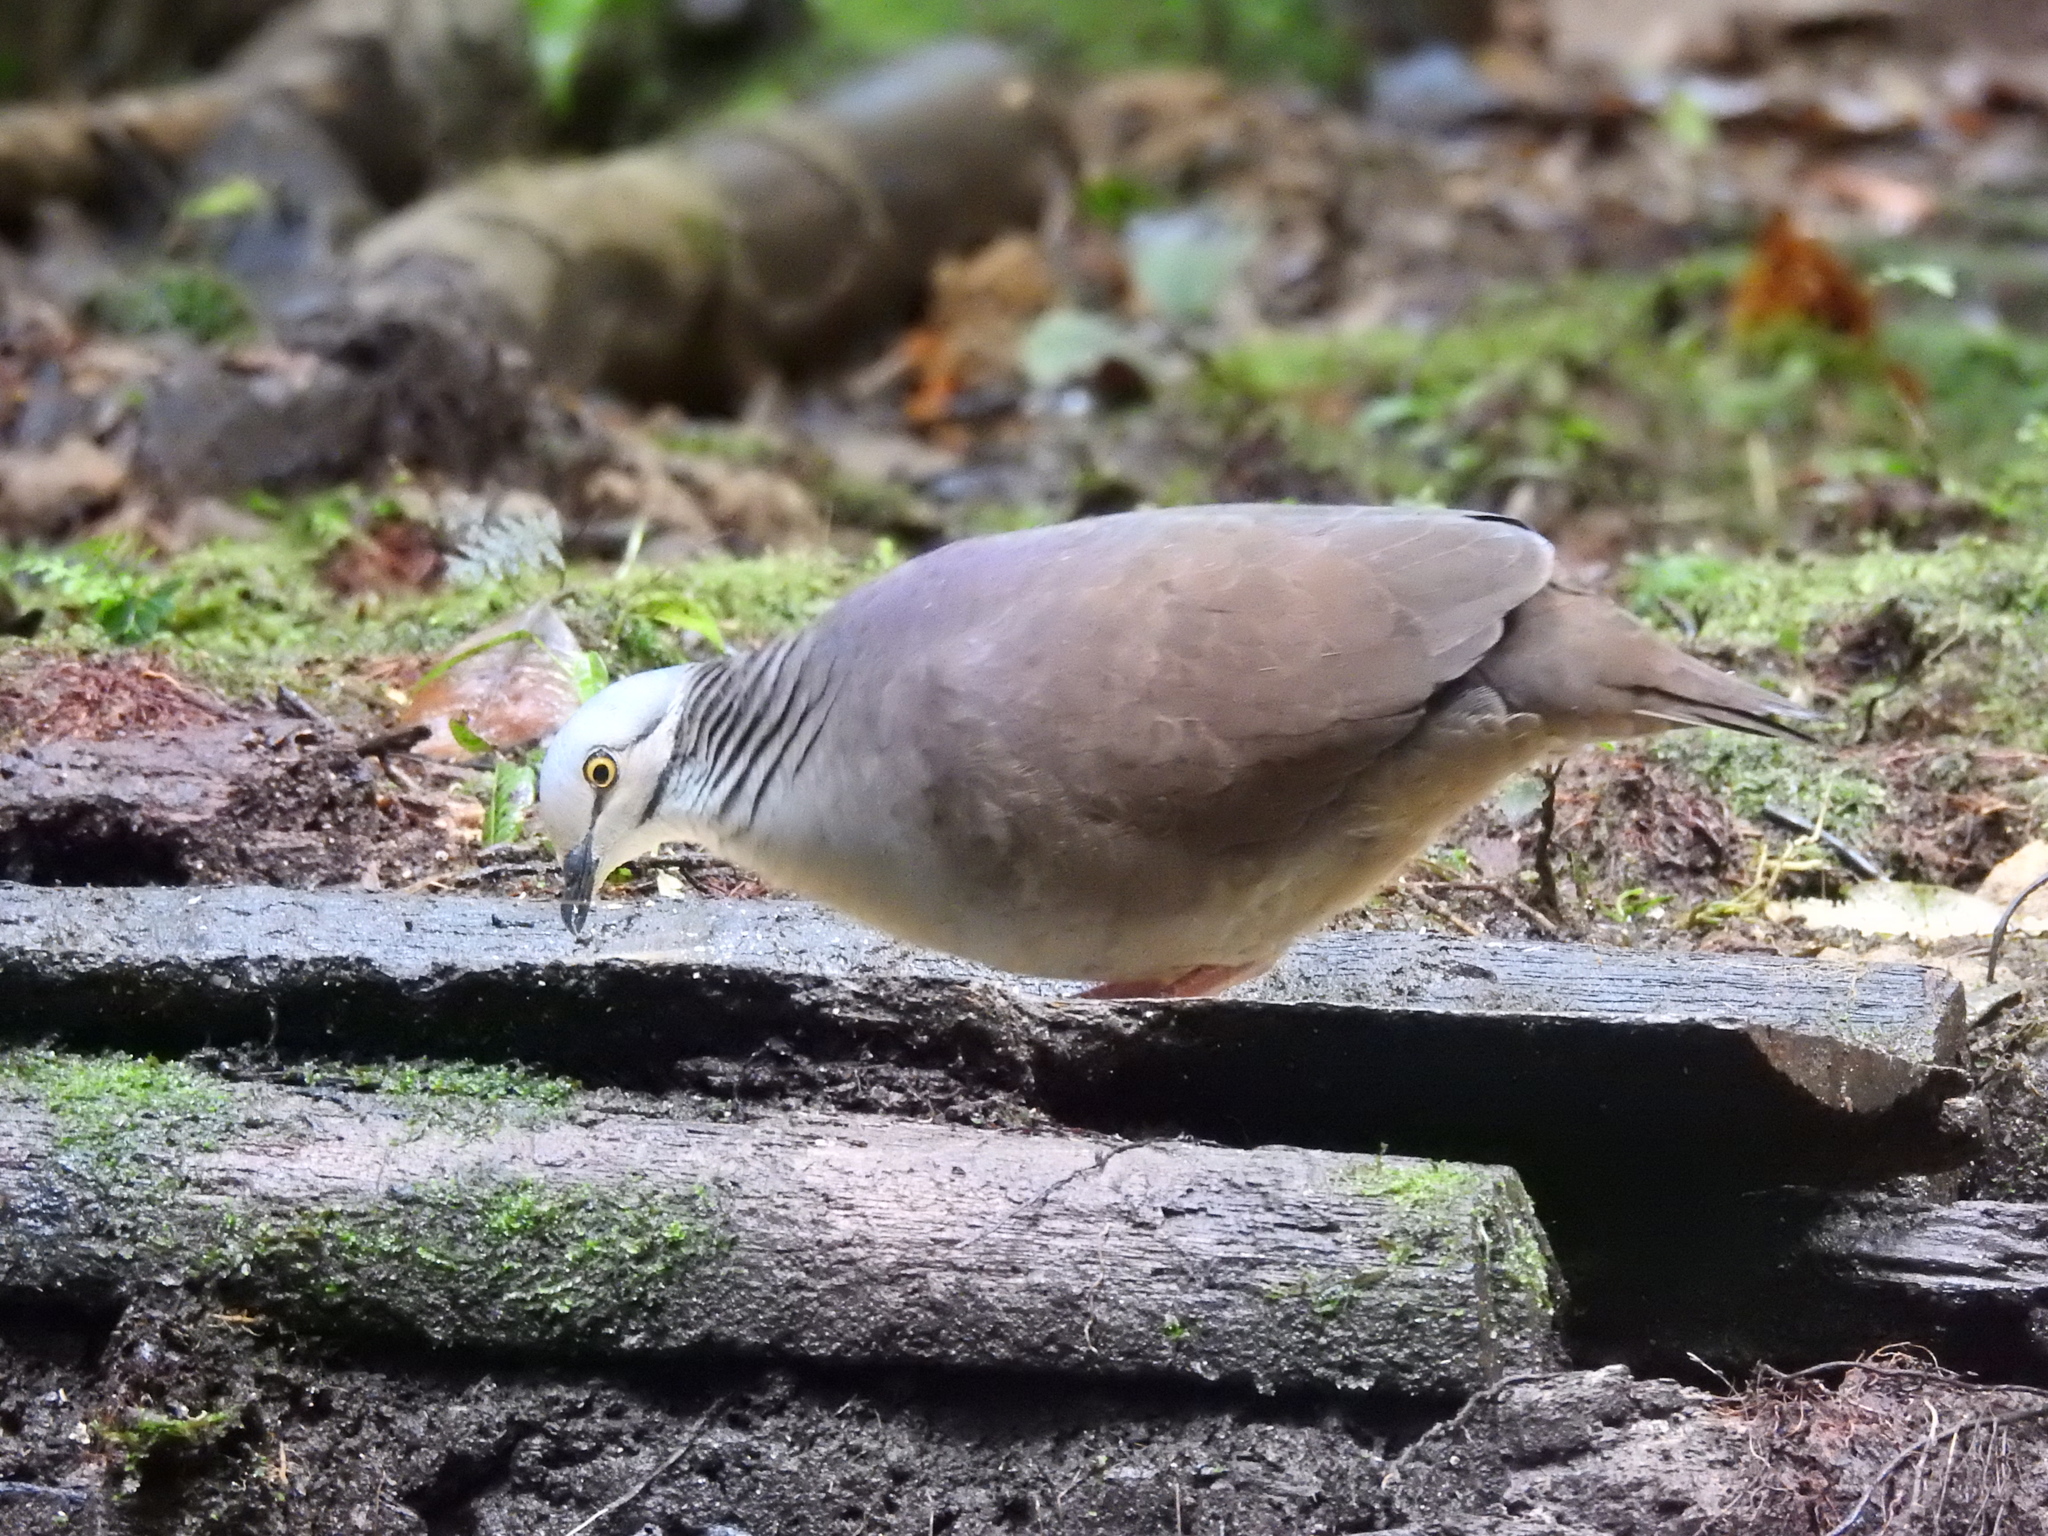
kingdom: Animalia
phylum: Chordata
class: Aves
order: Columbiformes
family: Columbidae
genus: Zentrygon
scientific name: Zentrygon frenata
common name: White-throated quail-dove
